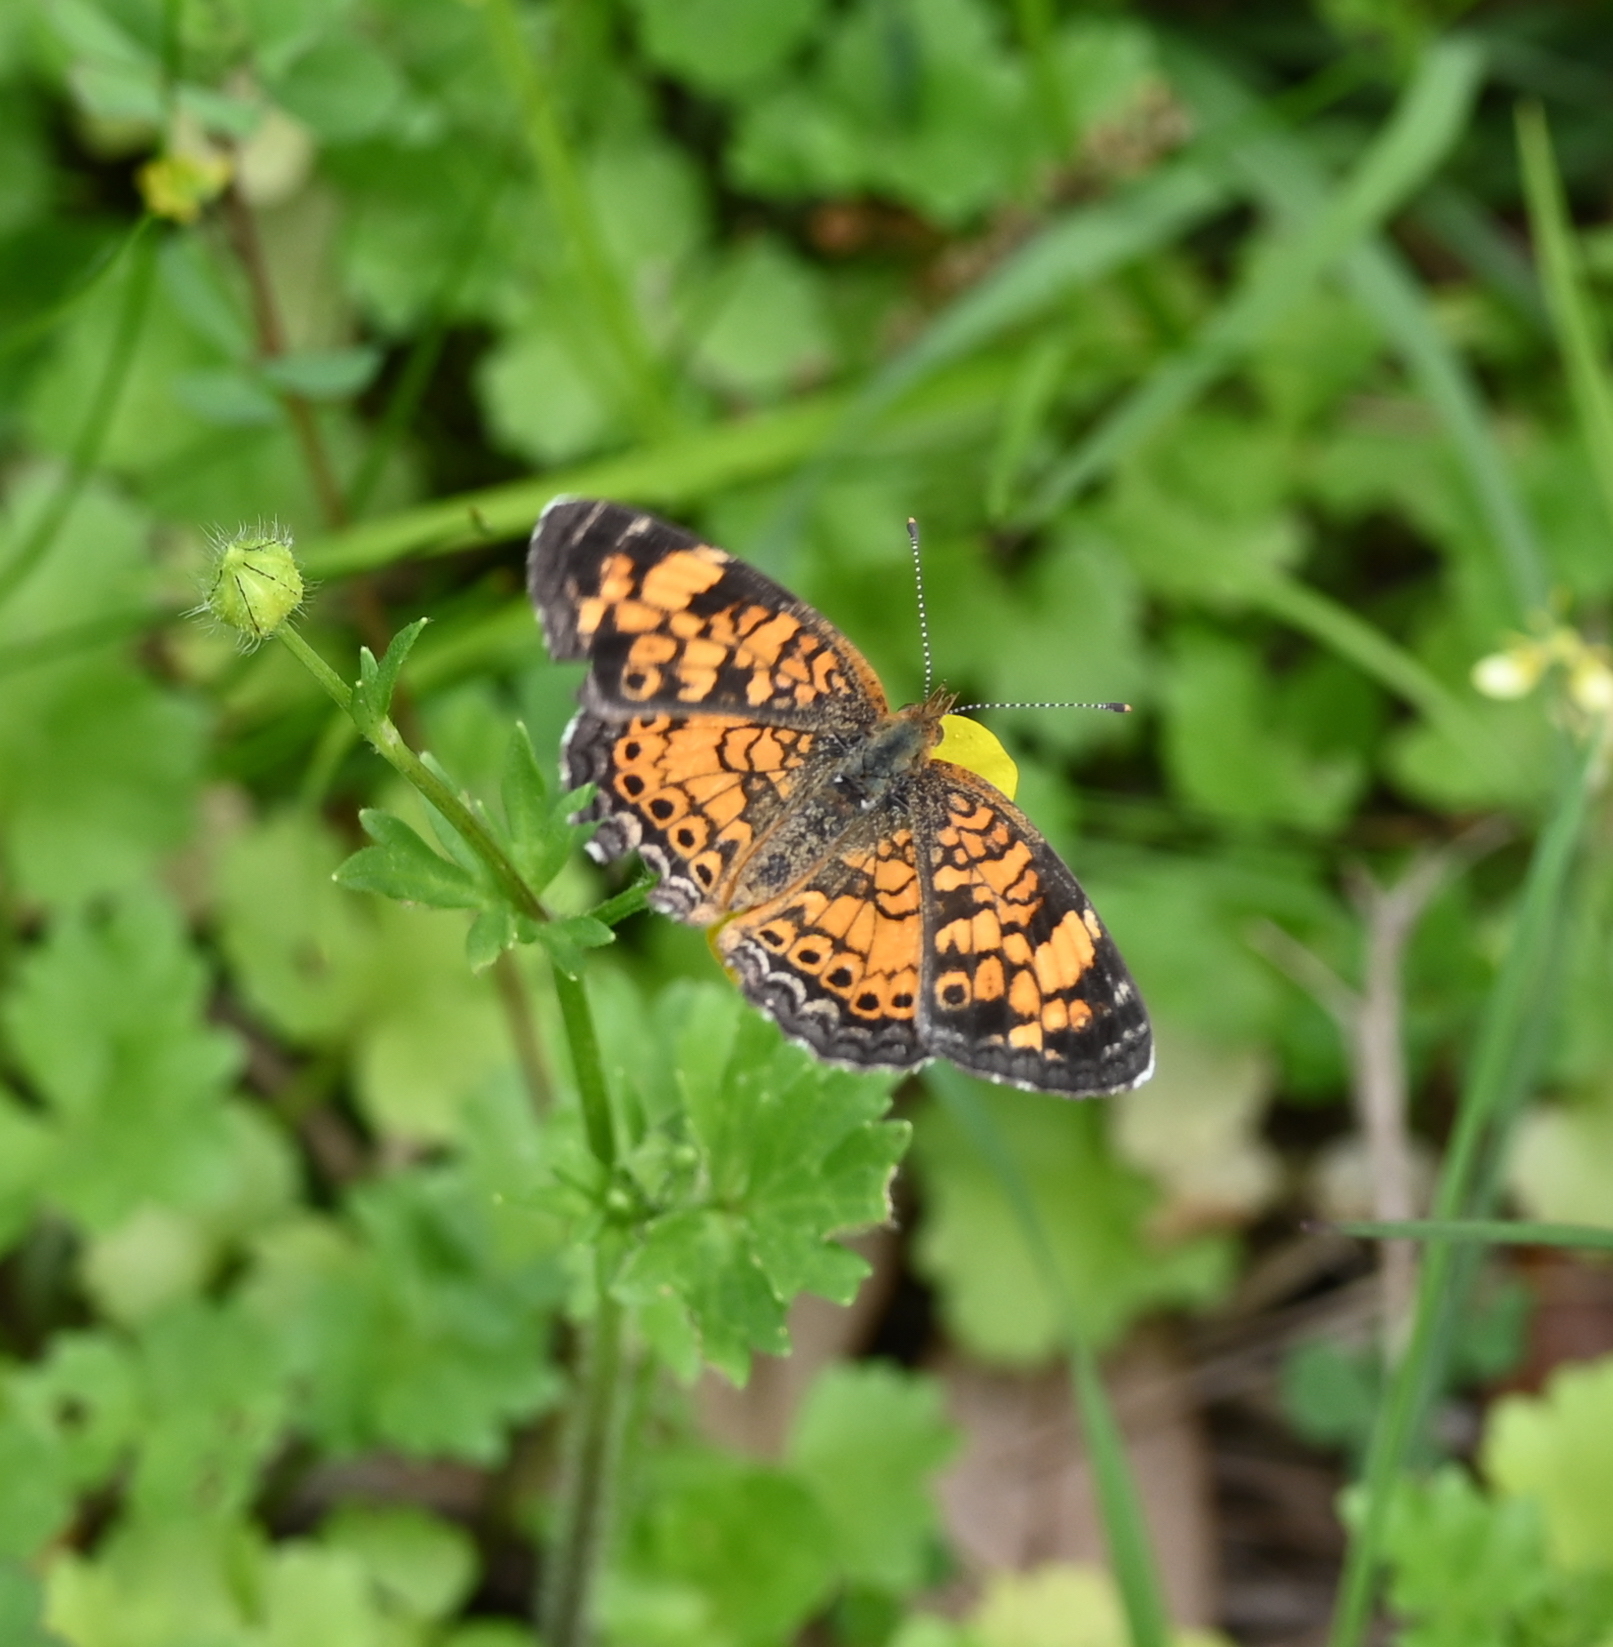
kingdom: Animalia
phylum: Arthropoda
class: Insecta
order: Lepidoptera
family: Nymphalidae
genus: Phyciodes
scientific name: Phyciodes tharos
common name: Pearl crescent
